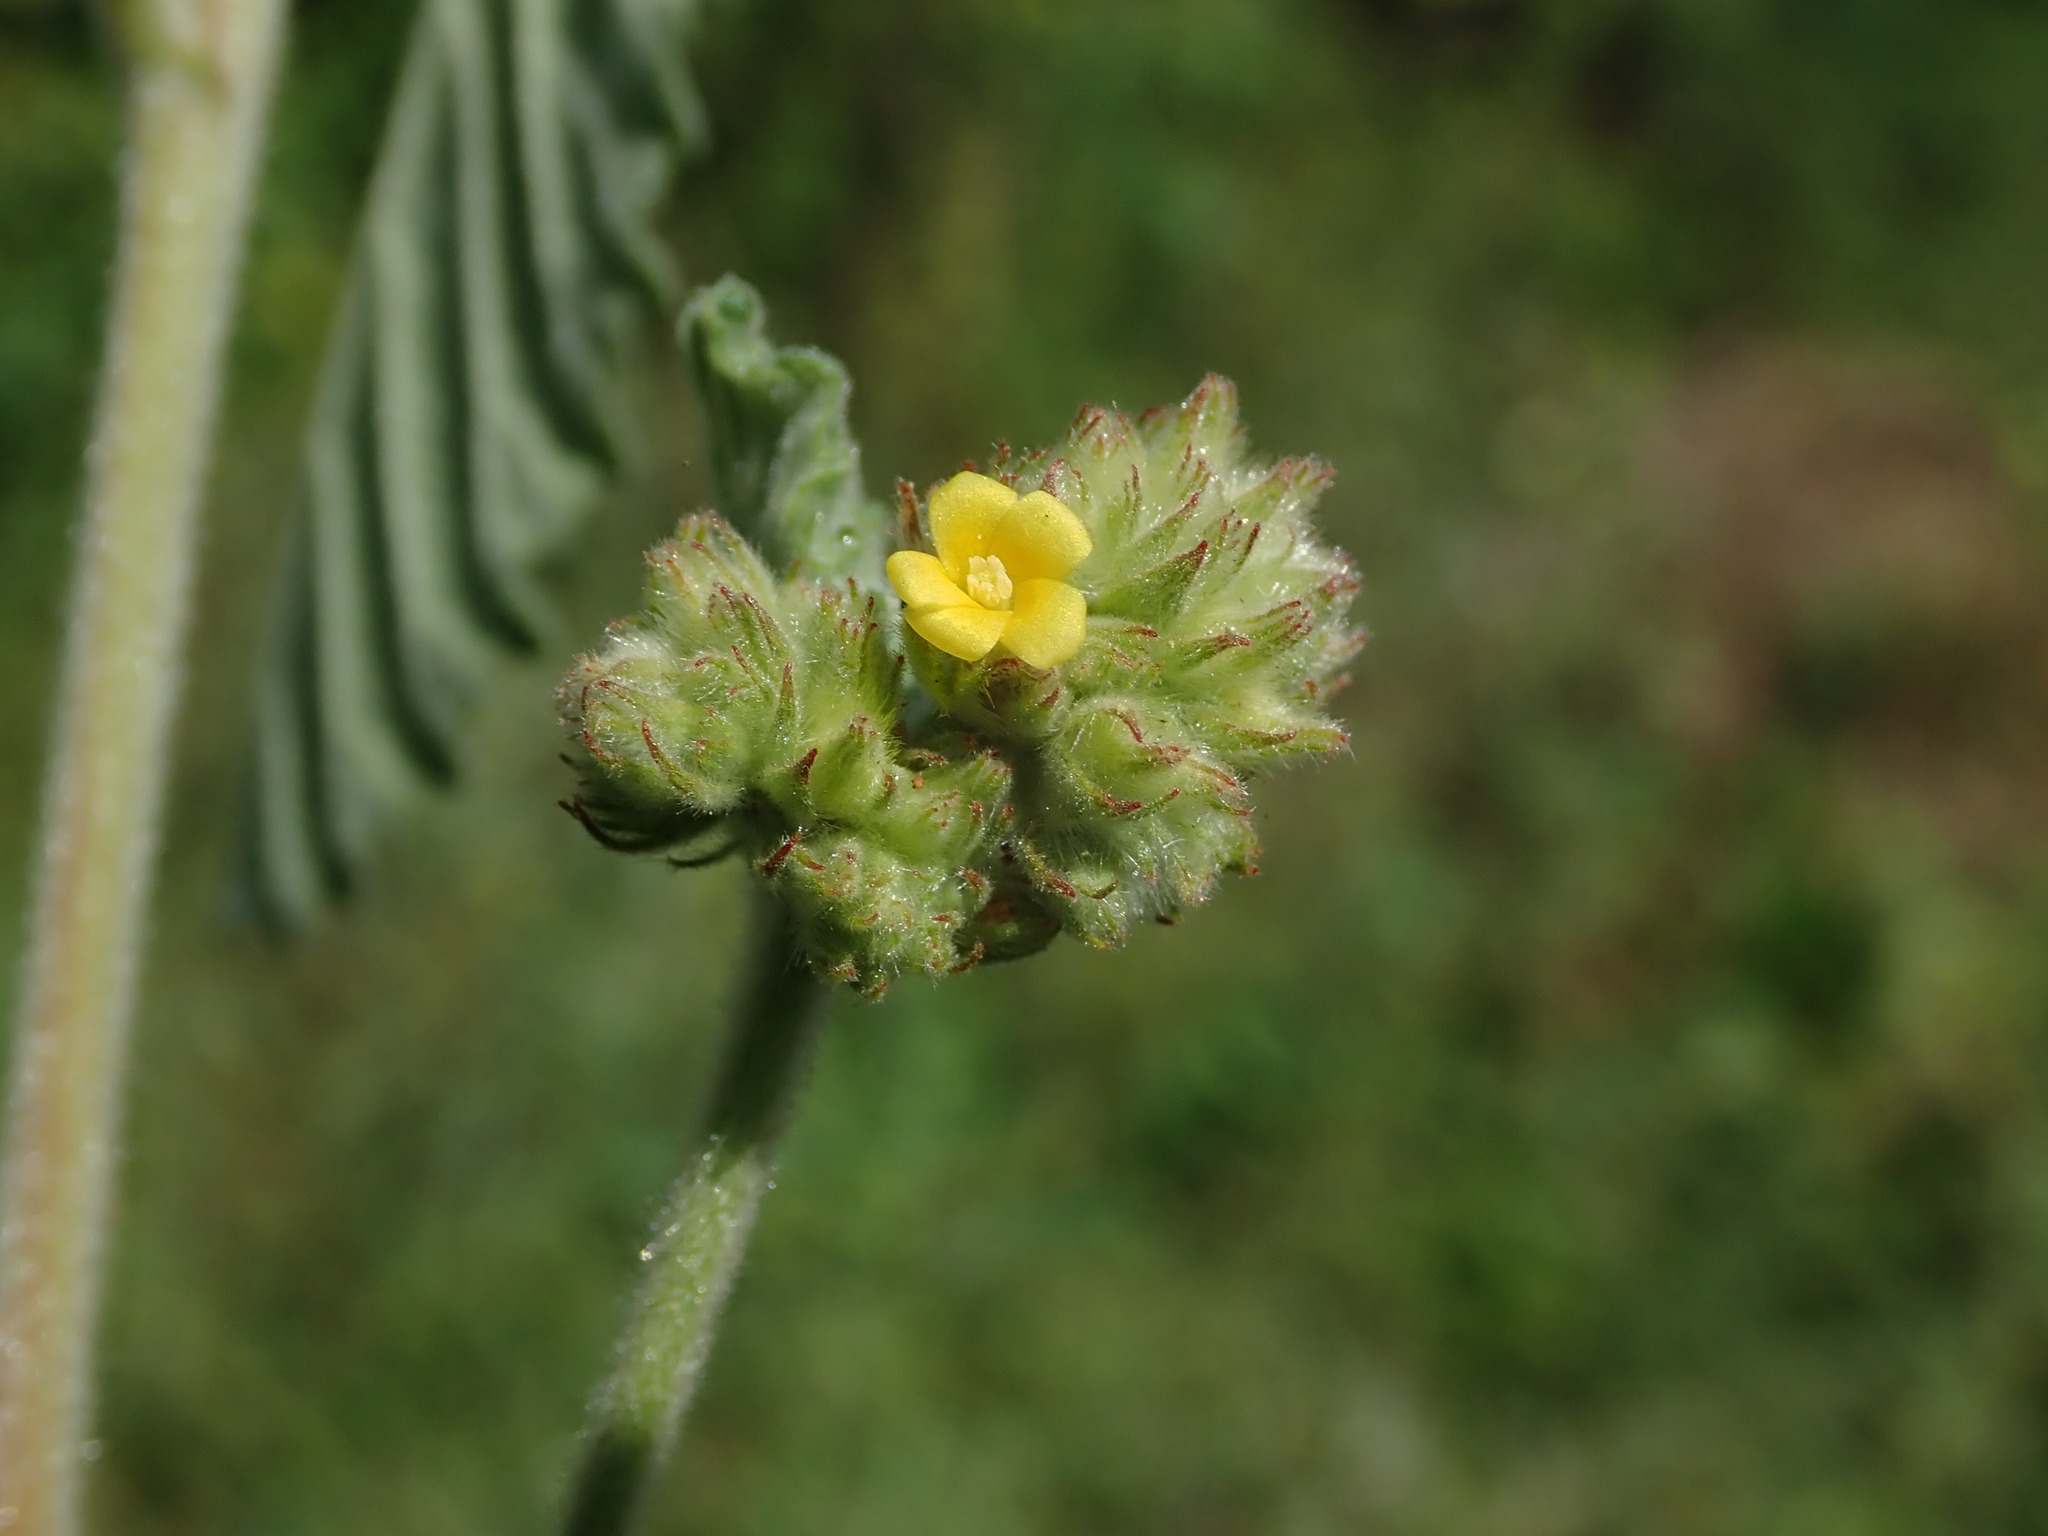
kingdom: Plantae
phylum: Tracheophyta
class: Magnoliopsida
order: Malvales
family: Malvaceae
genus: Waltheria
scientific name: Waltheria indica
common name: Leather-coat
